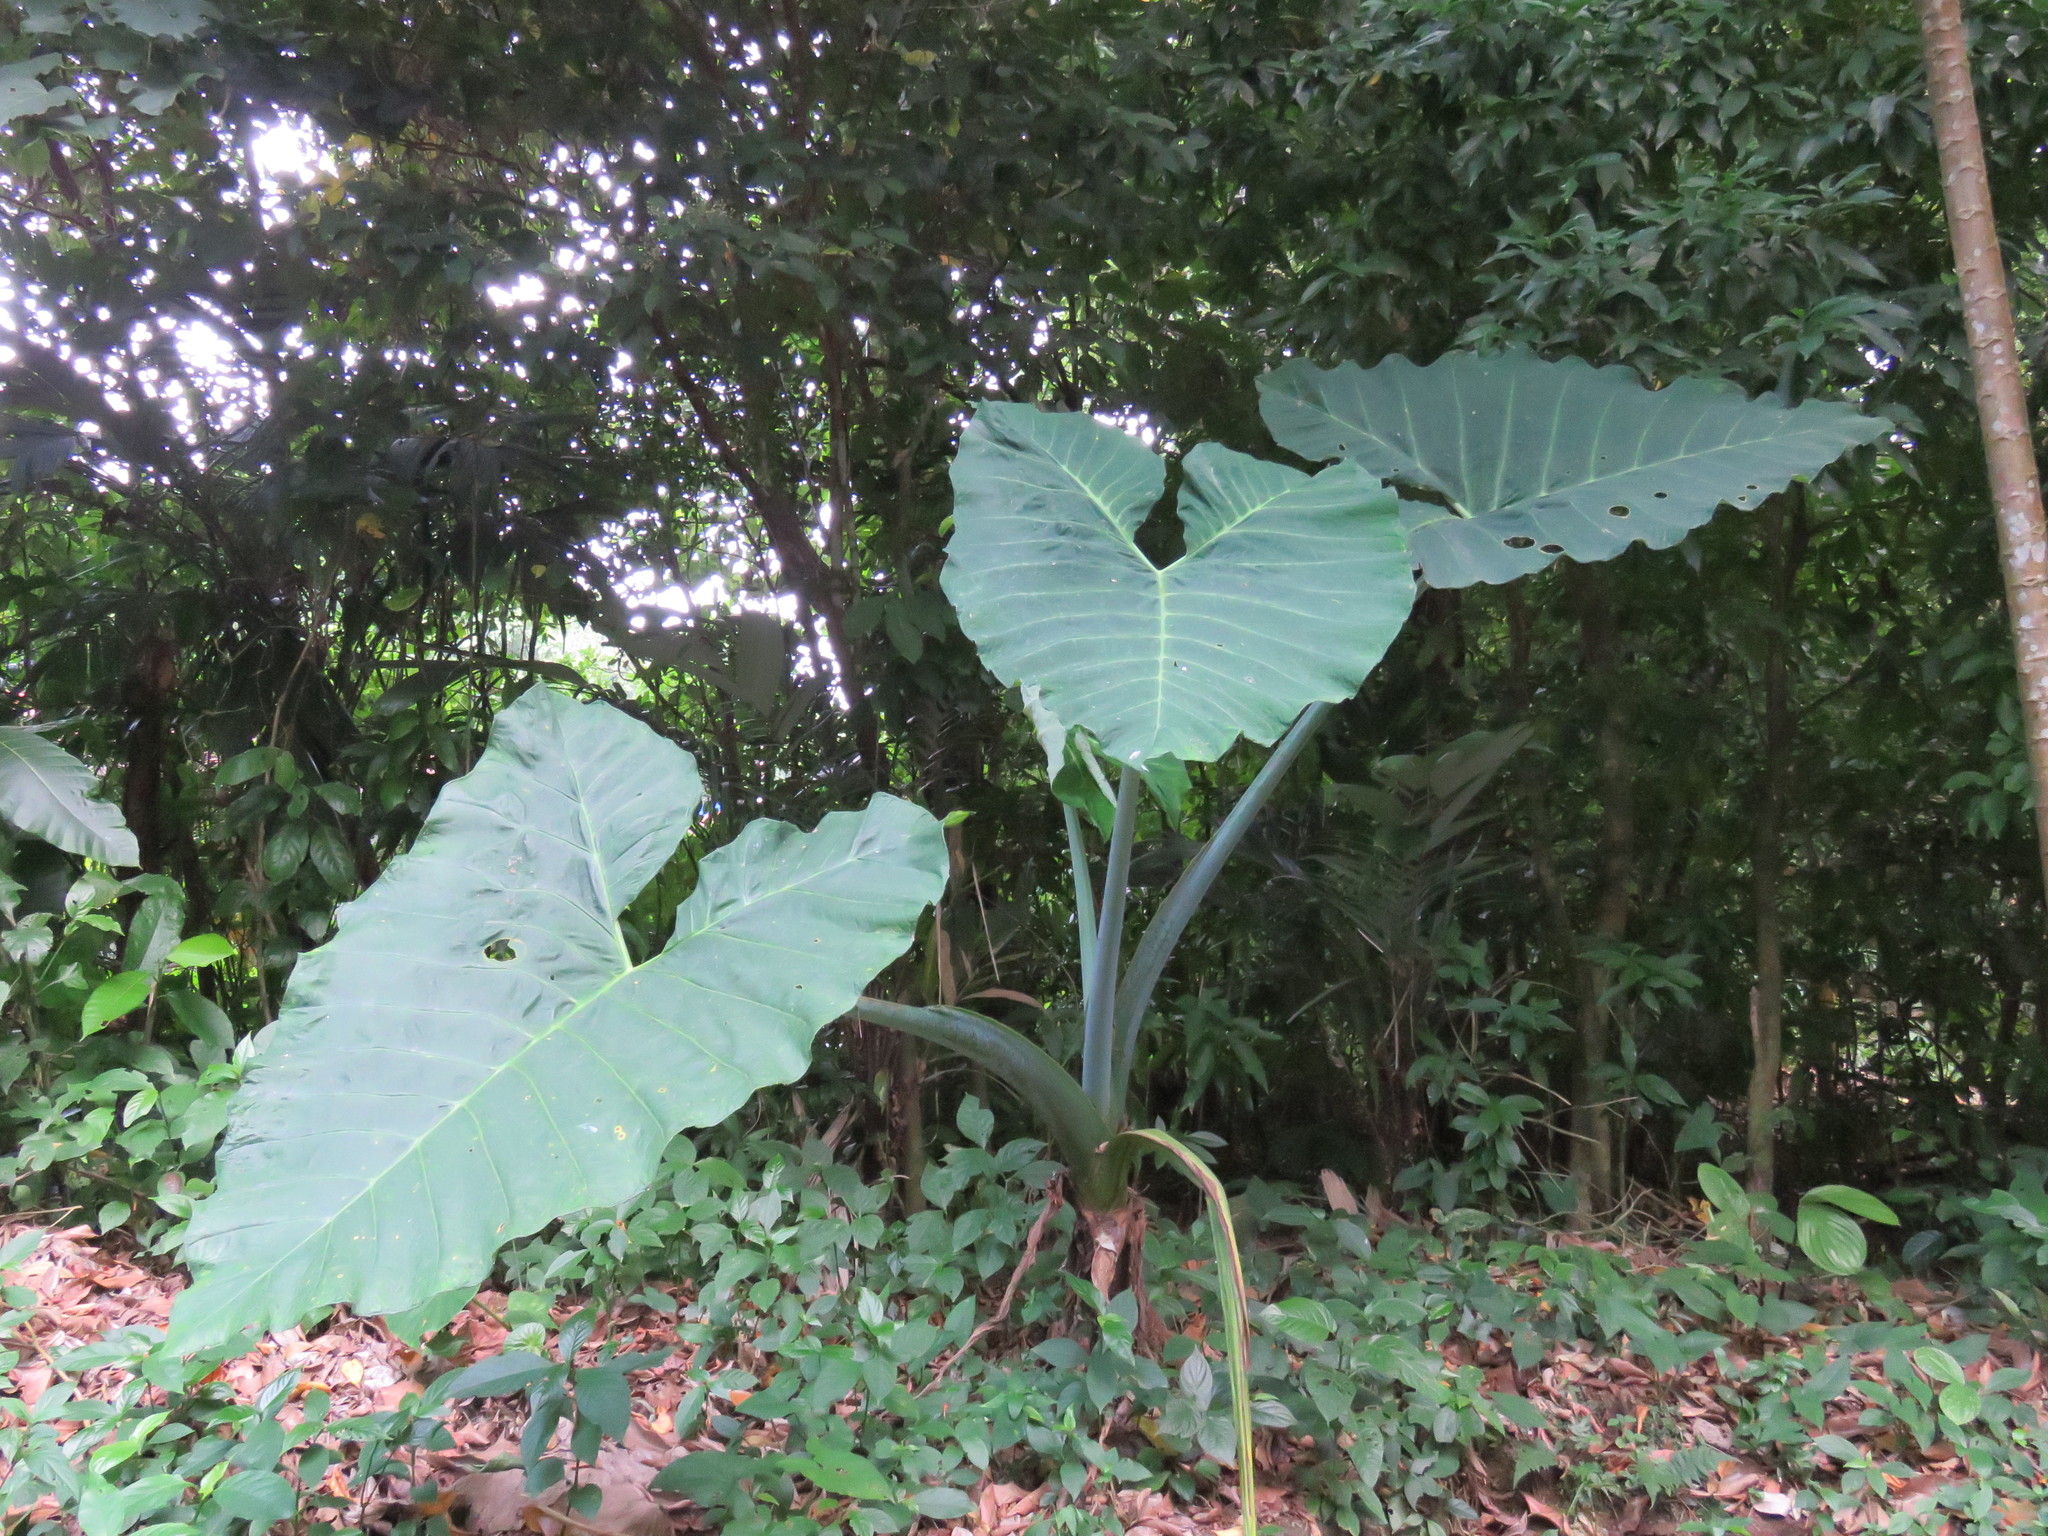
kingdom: Plantae
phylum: Tracheophyta
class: Liliopsida
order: Alismatales
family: Araceae
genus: Xanthosoma
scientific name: Xanthosoma robustum
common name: Capote
